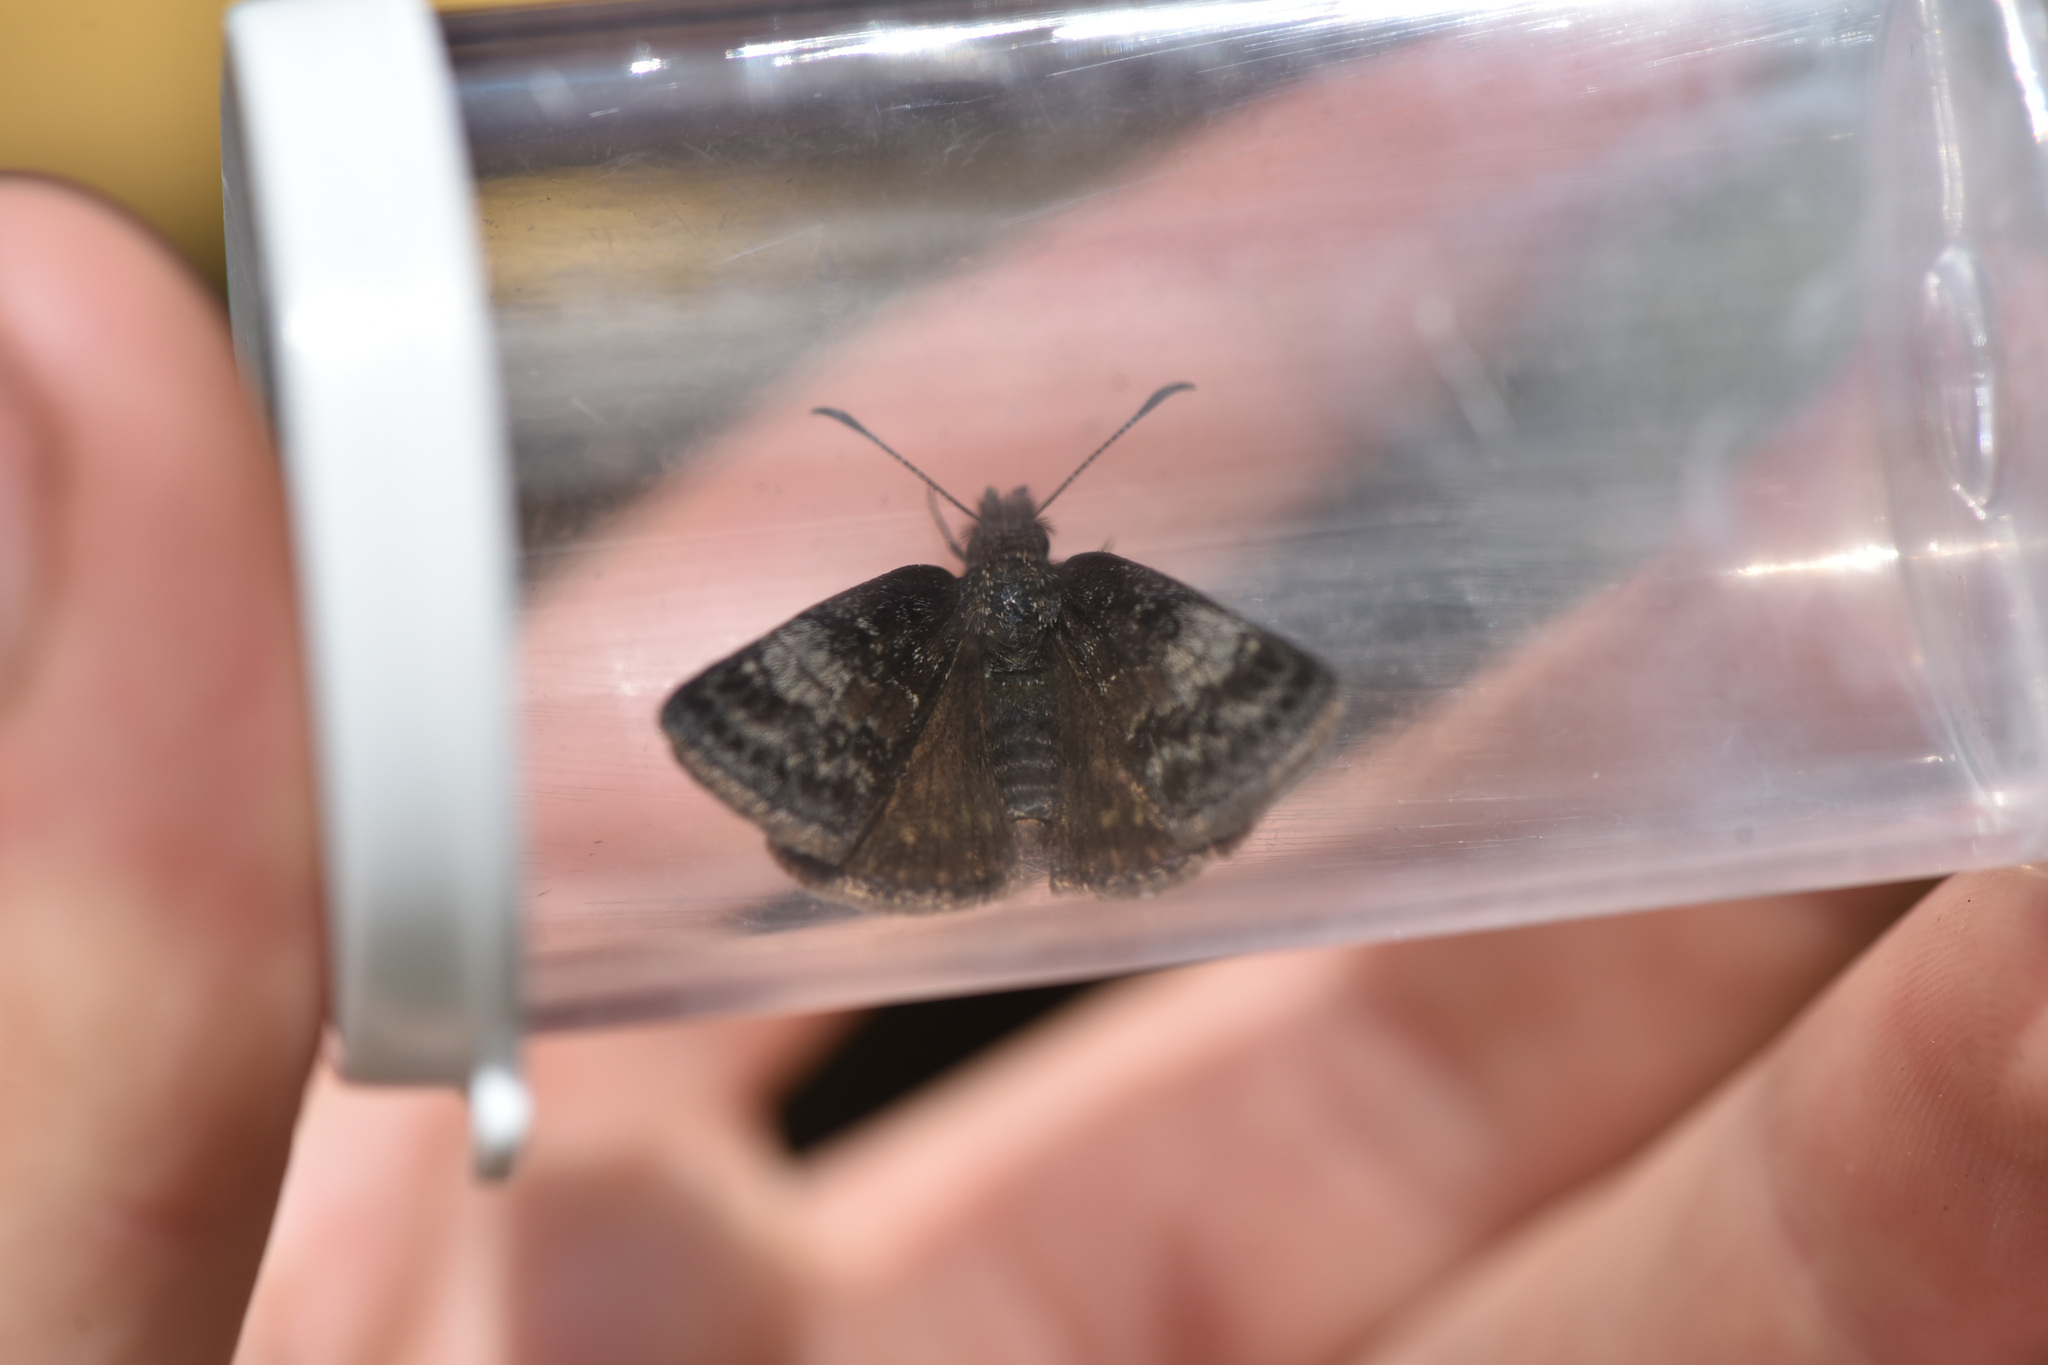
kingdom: Animalia
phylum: Arthropoda
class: Insecta
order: Lepidoptera
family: Hesperiidae
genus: Erynnis
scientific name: Erynnis icelus
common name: Dreamy duskywing
